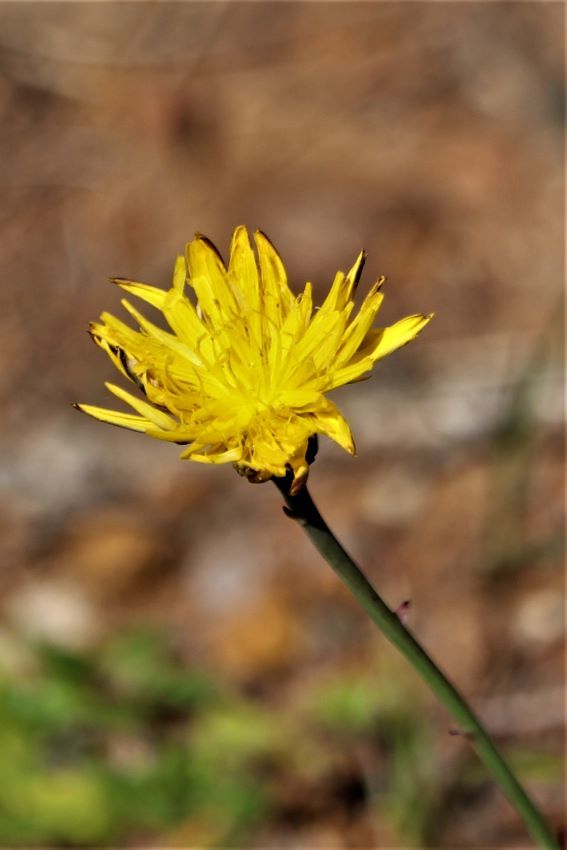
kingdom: Plantae
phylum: Tracheophyta
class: Magnoliopsida
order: Asterales
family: Asteraceae
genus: Hypochaeris
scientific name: Hypochaeris radicata
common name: Flatweed
